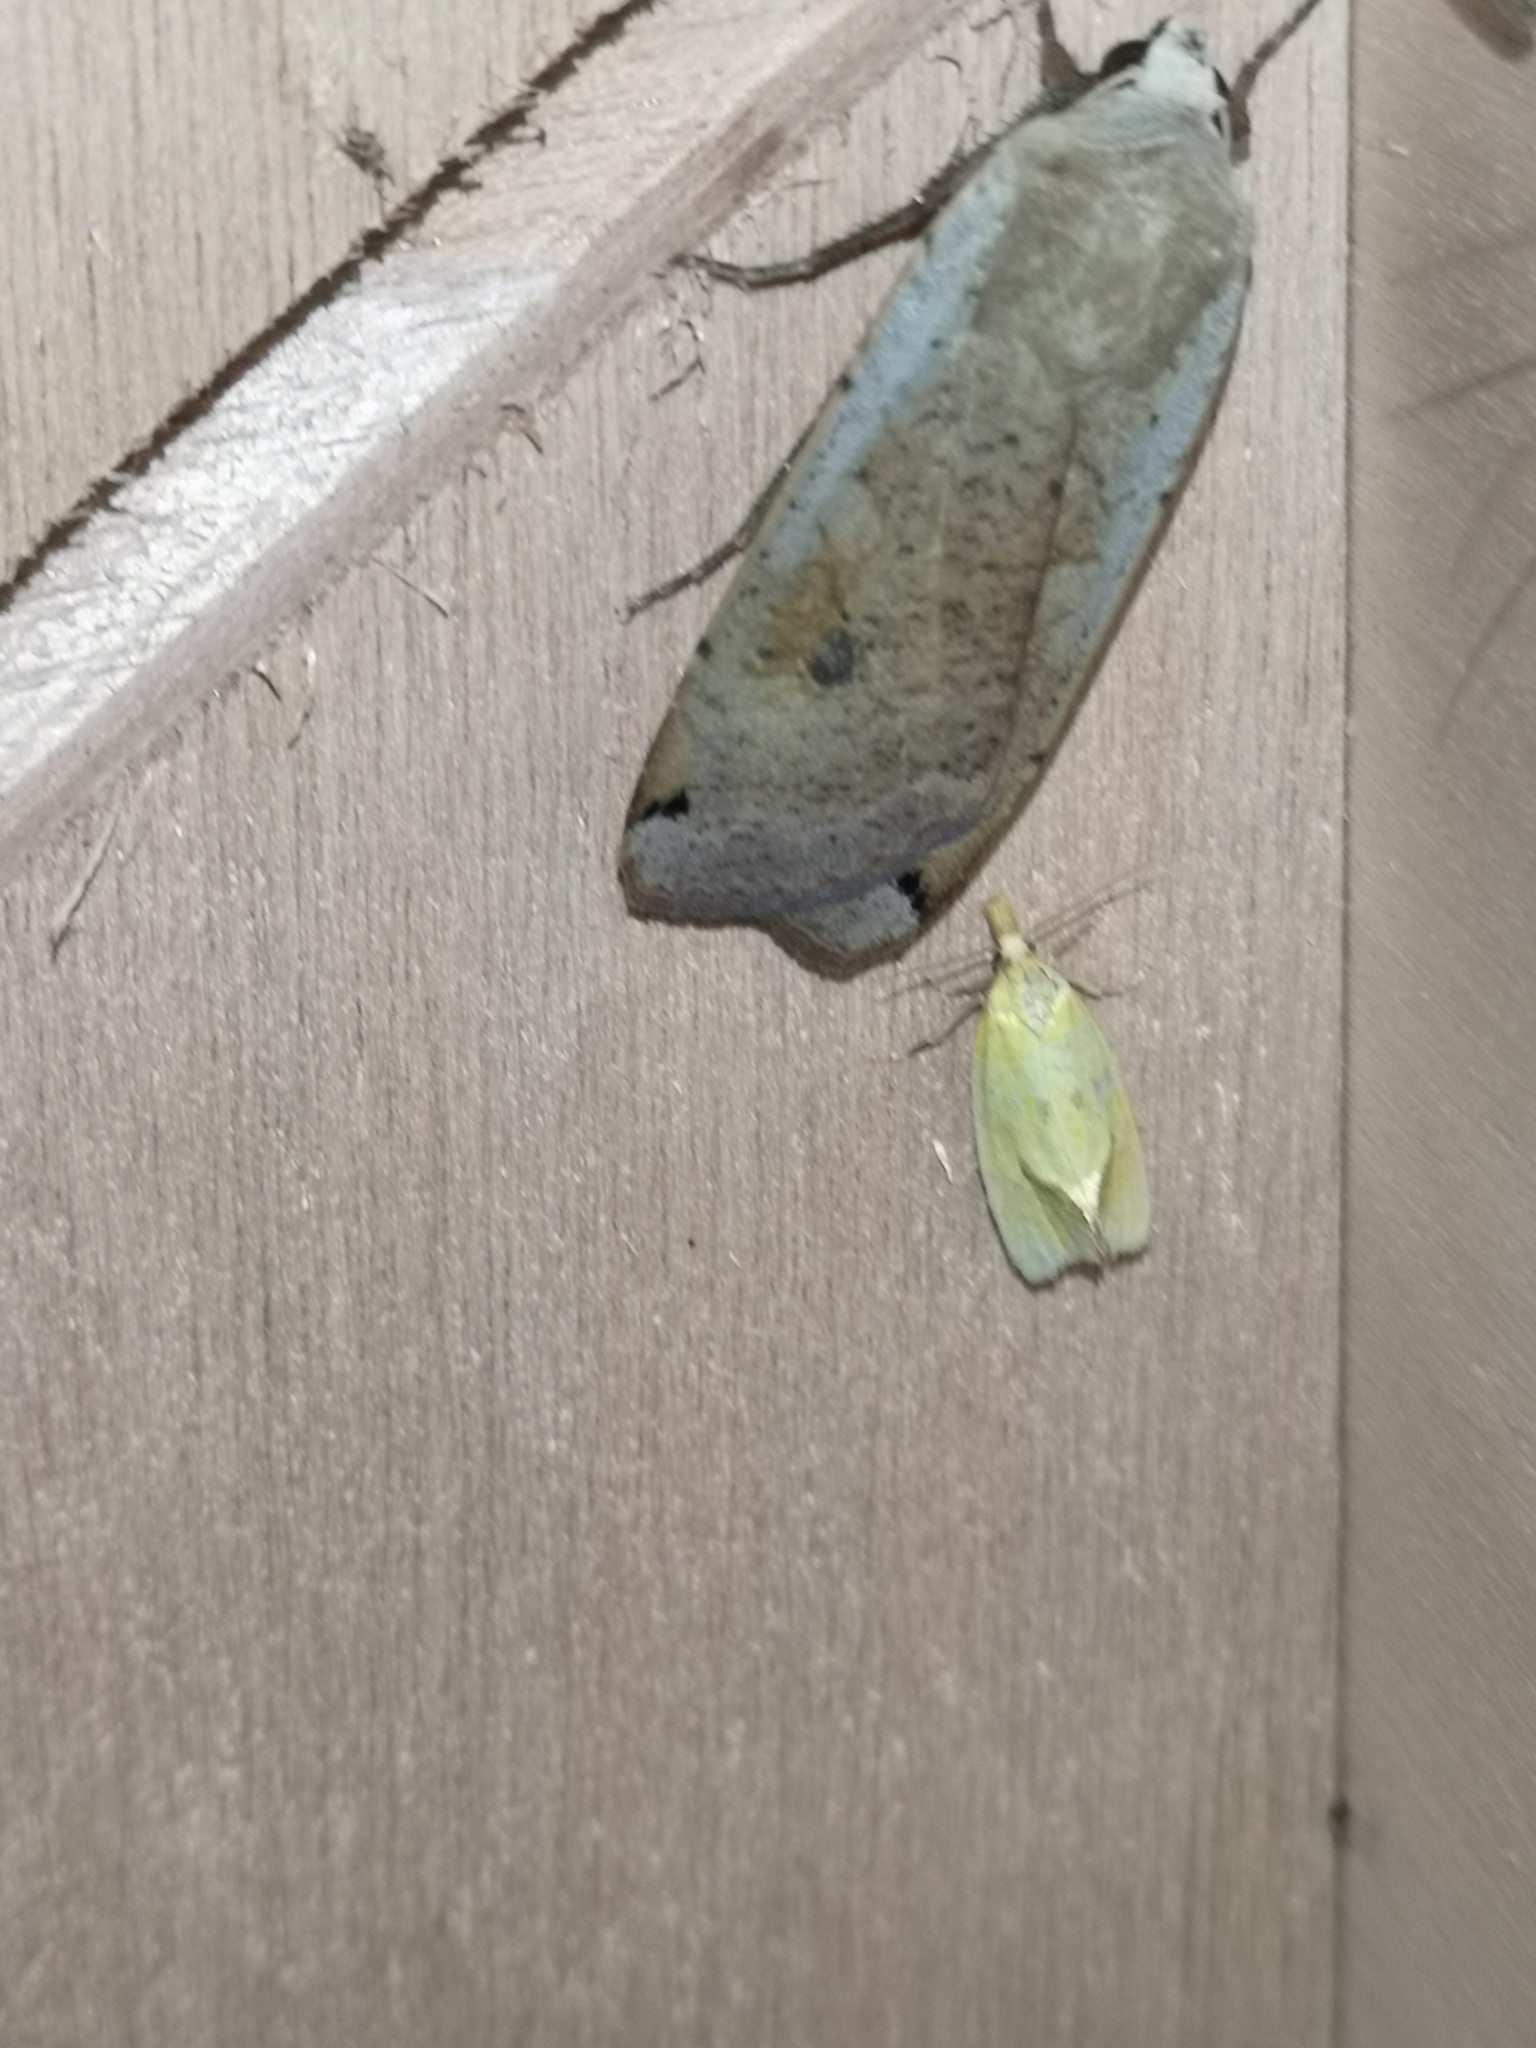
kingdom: Animalia
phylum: Arthropoda
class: Insecta
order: Lepidoptera
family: Tortricidae
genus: Agapeta
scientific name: Agapeta hamana
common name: Common yellow conch
